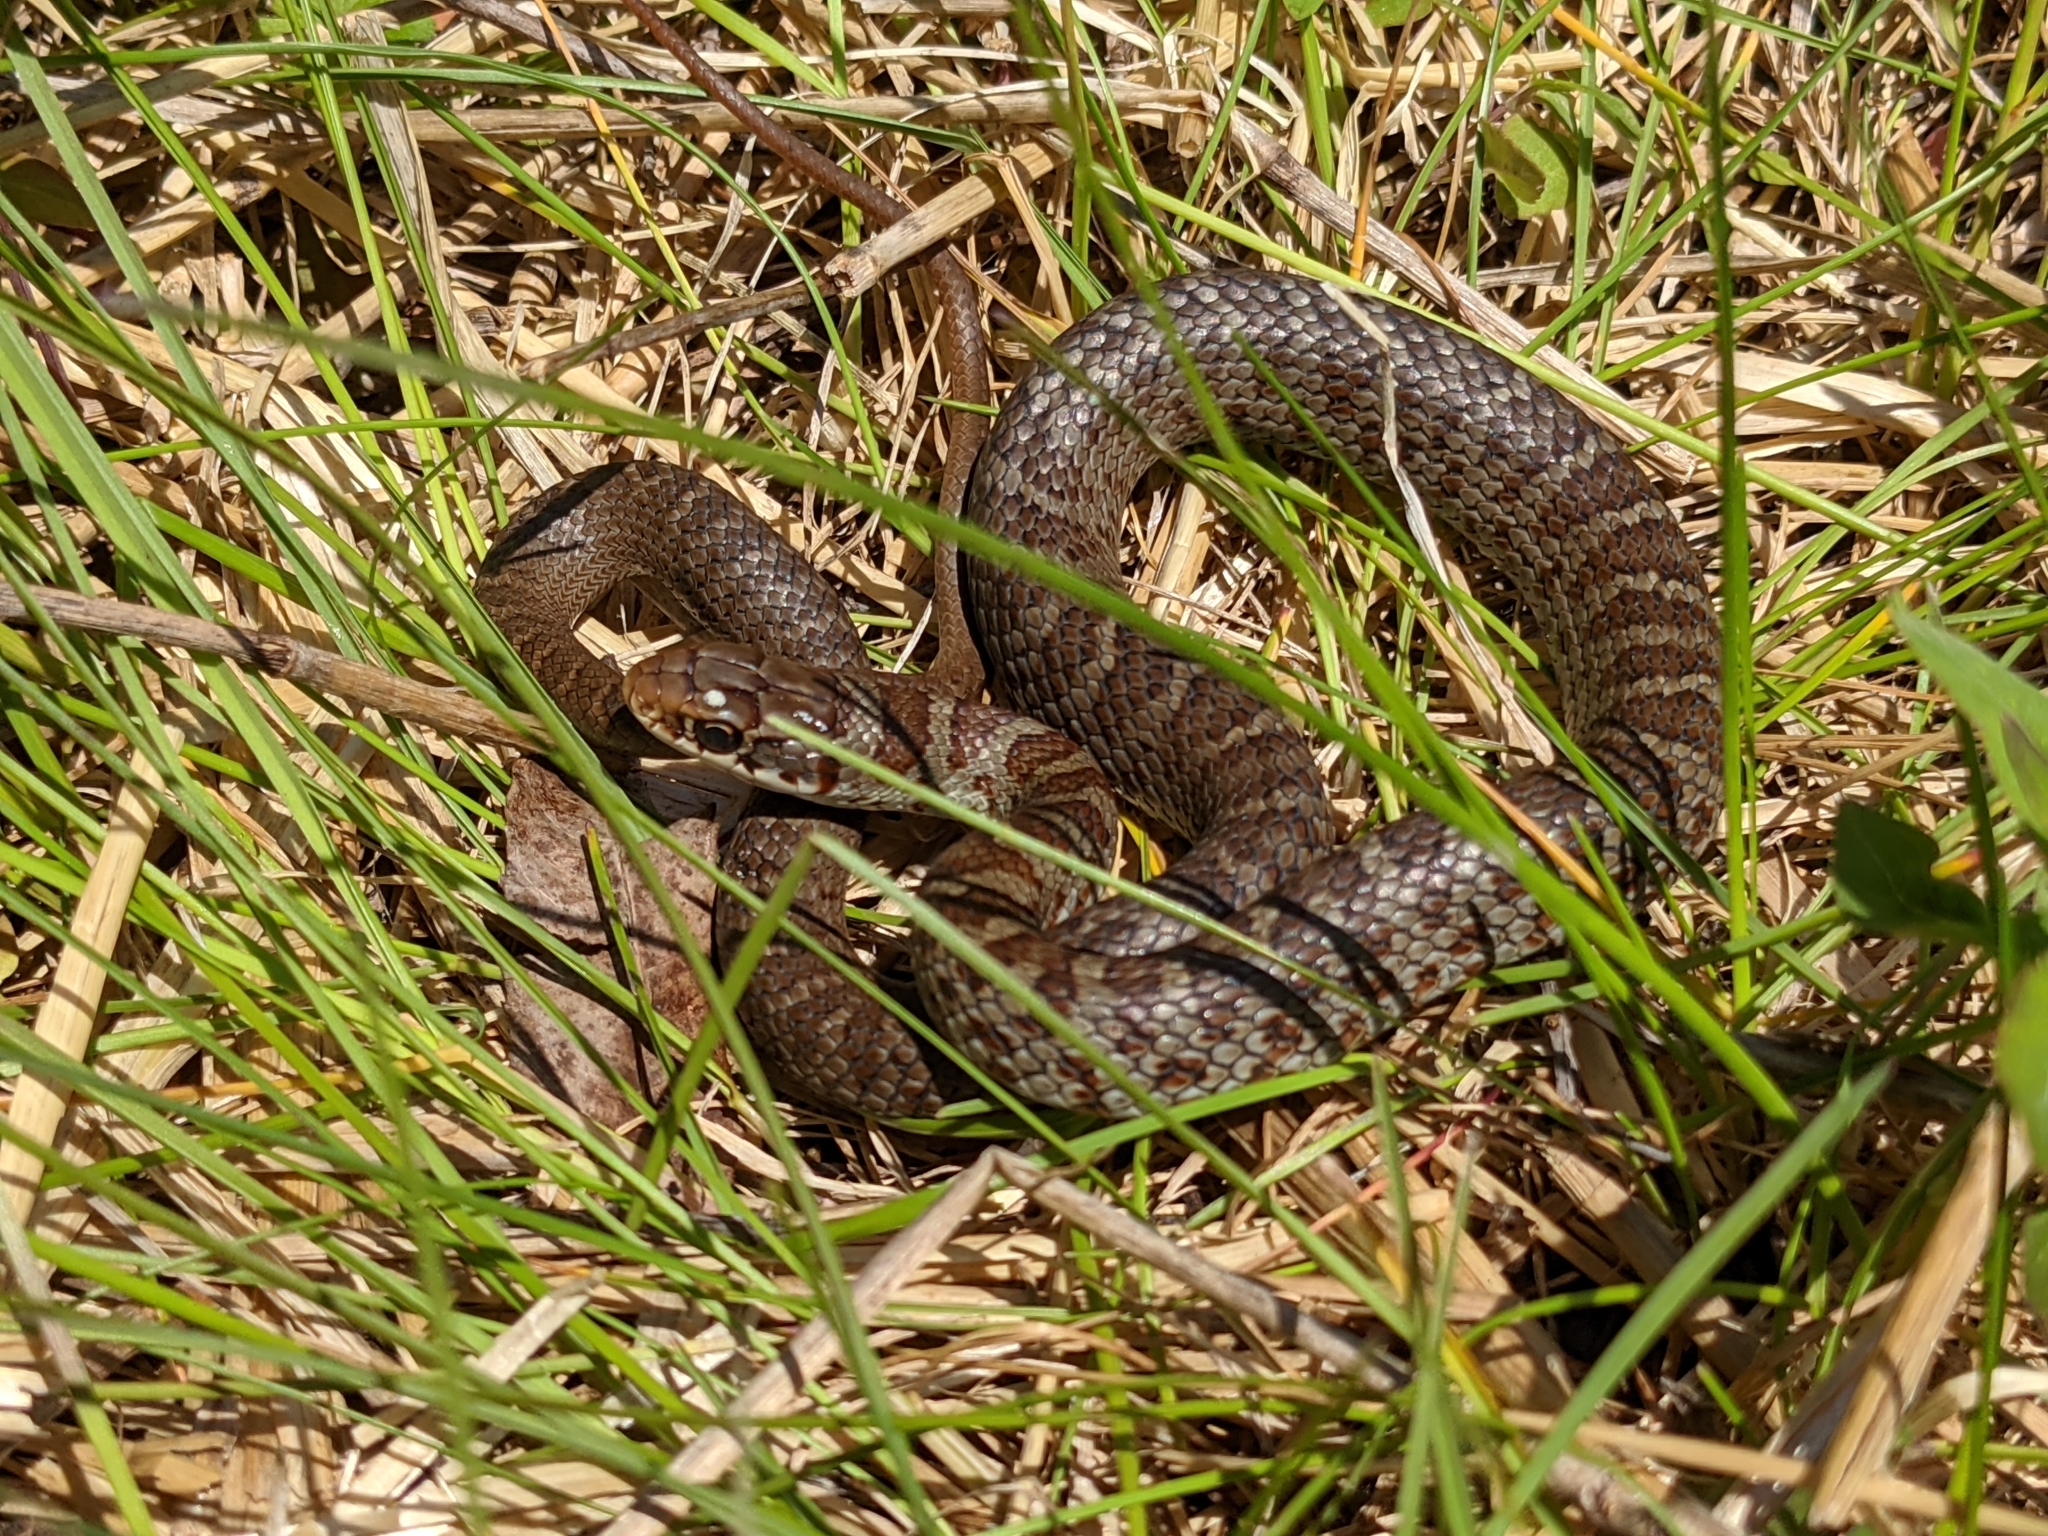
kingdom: Animalia
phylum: Chordata
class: Squamata
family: Colubridae
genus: Coluber
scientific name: Coluber constrictor
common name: Eastern racer
